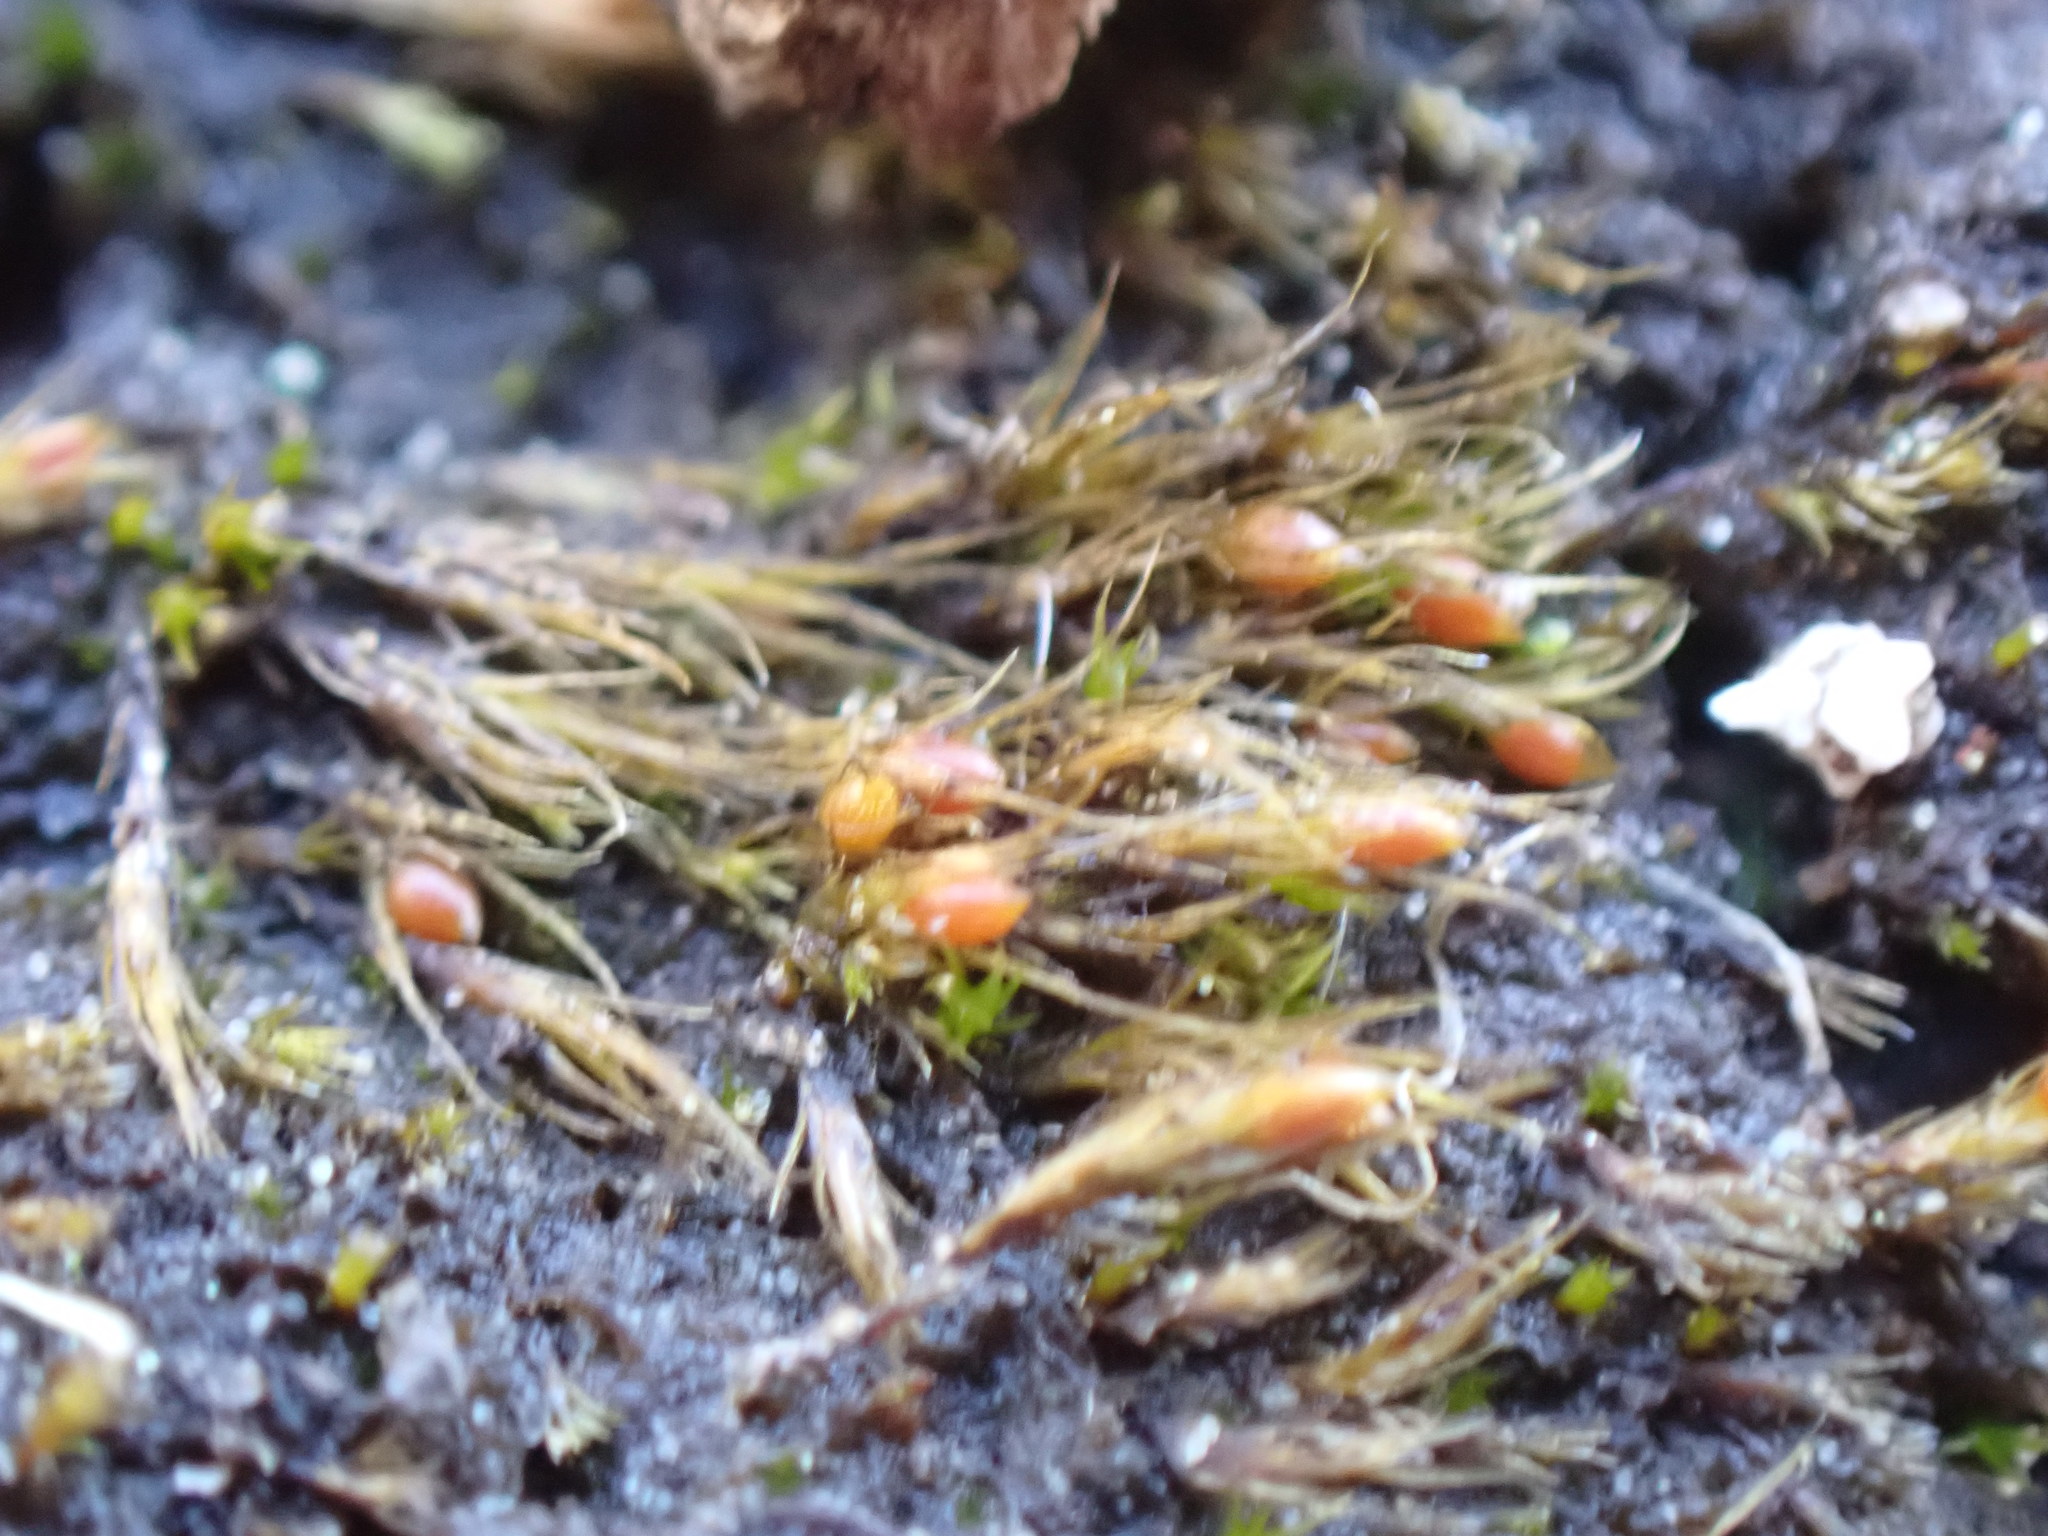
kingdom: Plantae
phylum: Bryophyta
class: Bryopsida
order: Dicranales
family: Ditrichaceae
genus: Pleuridium
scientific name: Pleuridium acuminatum
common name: Taper-leaved earth-moss
